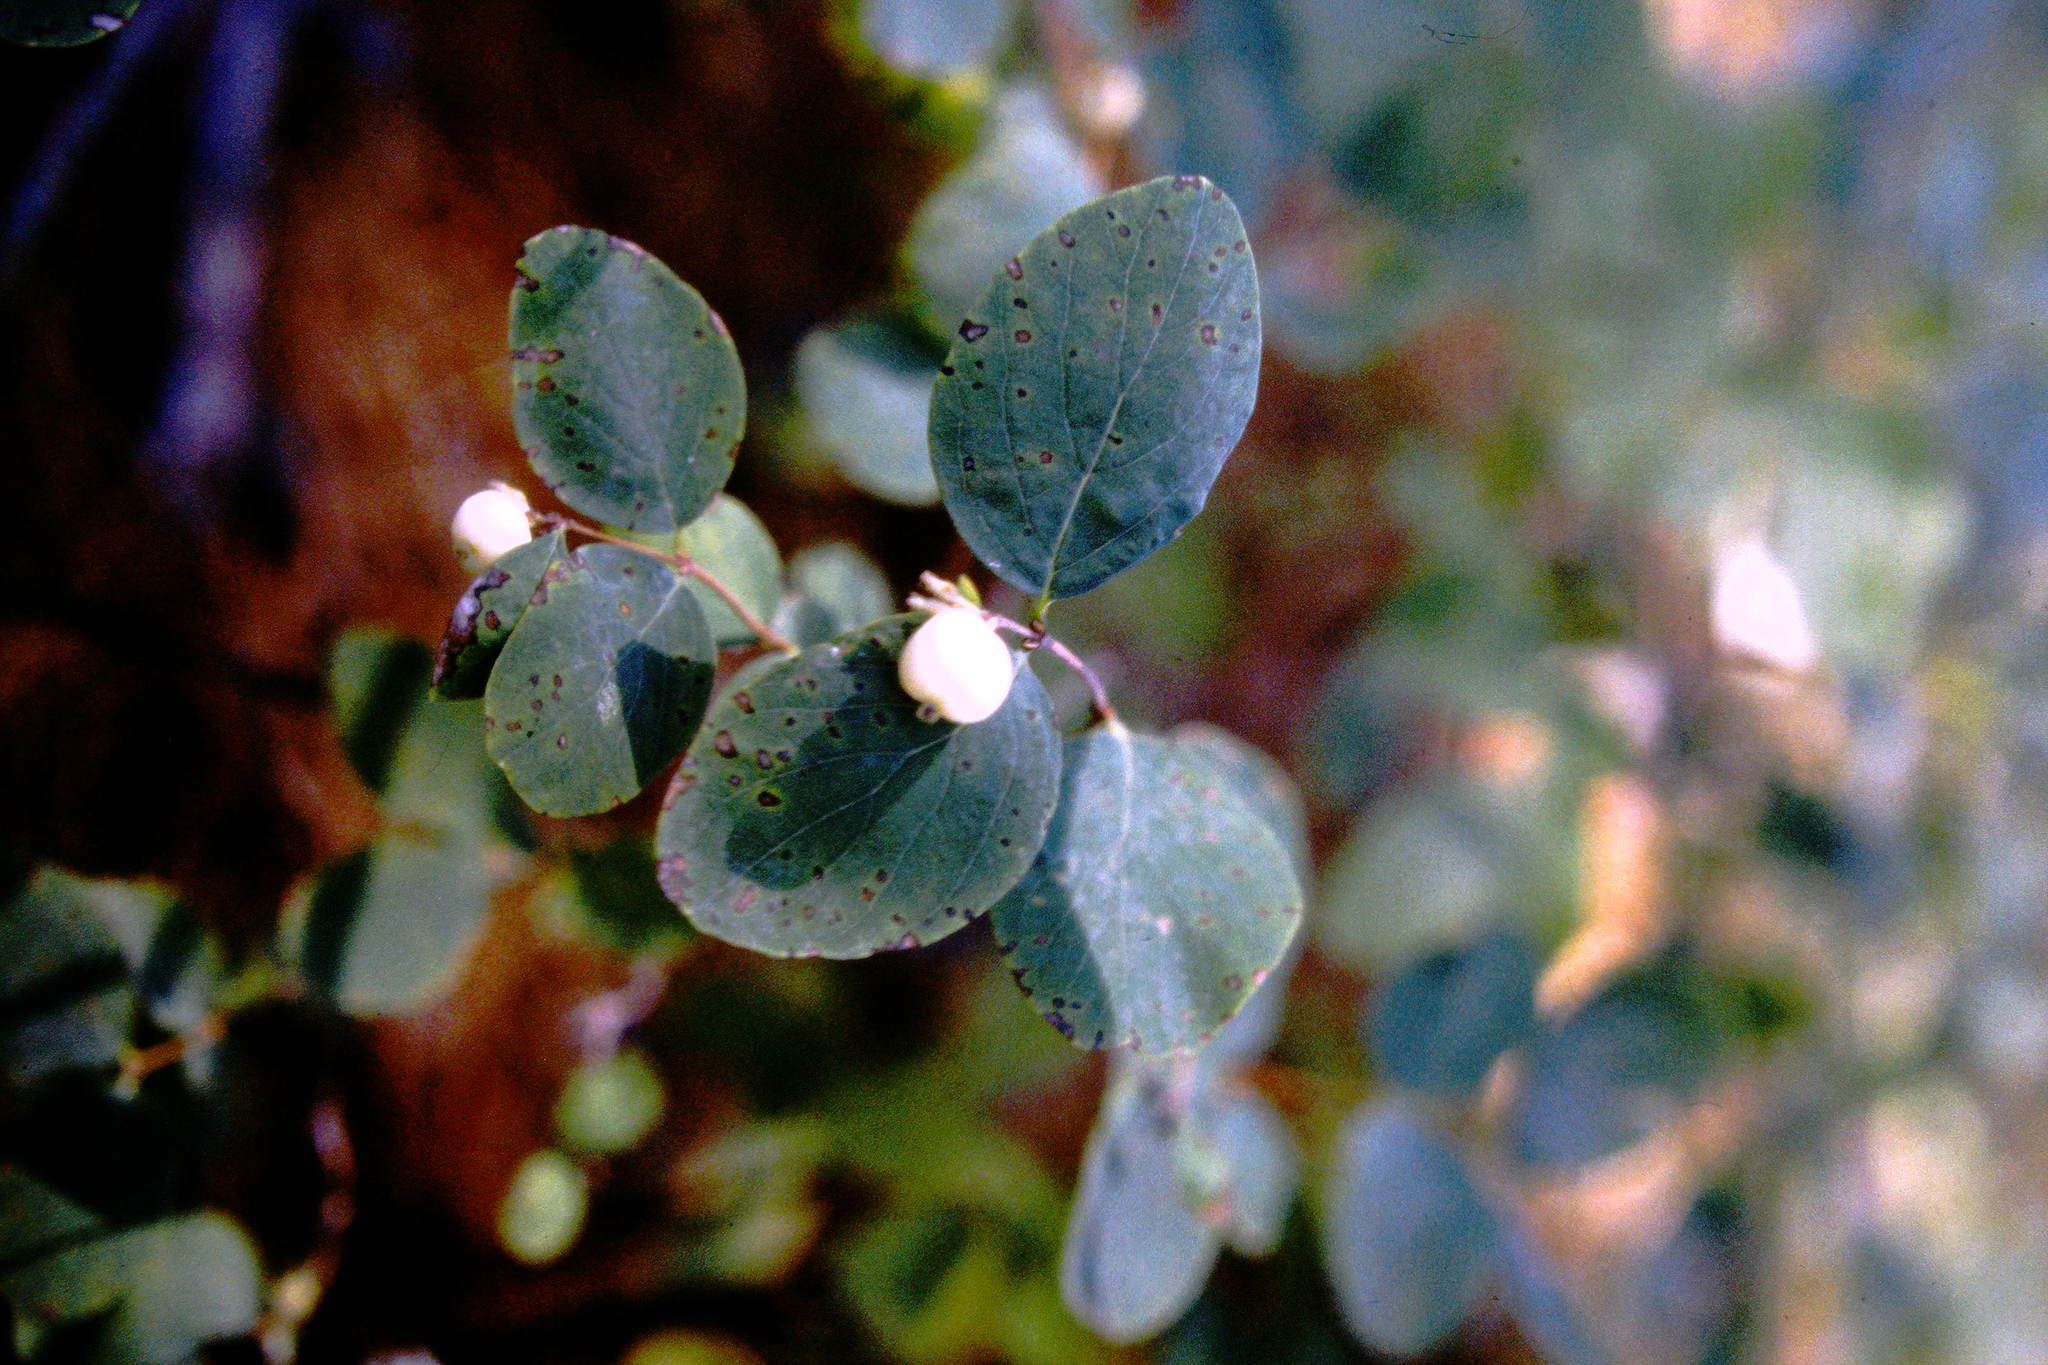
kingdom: Plantae
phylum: Tracheophyta
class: Magnoliopsida
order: Dipsacales
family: Caprifoliaceae
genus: Symphoricarpos
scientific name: Symphoricarpos albus
